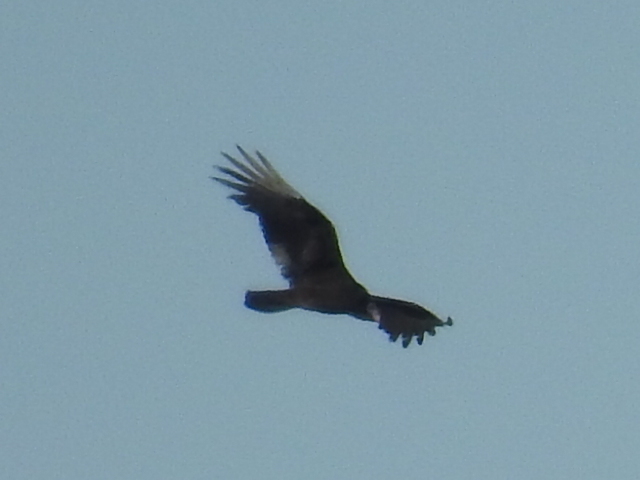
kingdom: Animalia
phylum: Chordata
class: Aves
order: Accipitriformes
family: Cathartidae
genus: Cathartes
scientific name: Cathartes aura
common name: Turkey vulture
